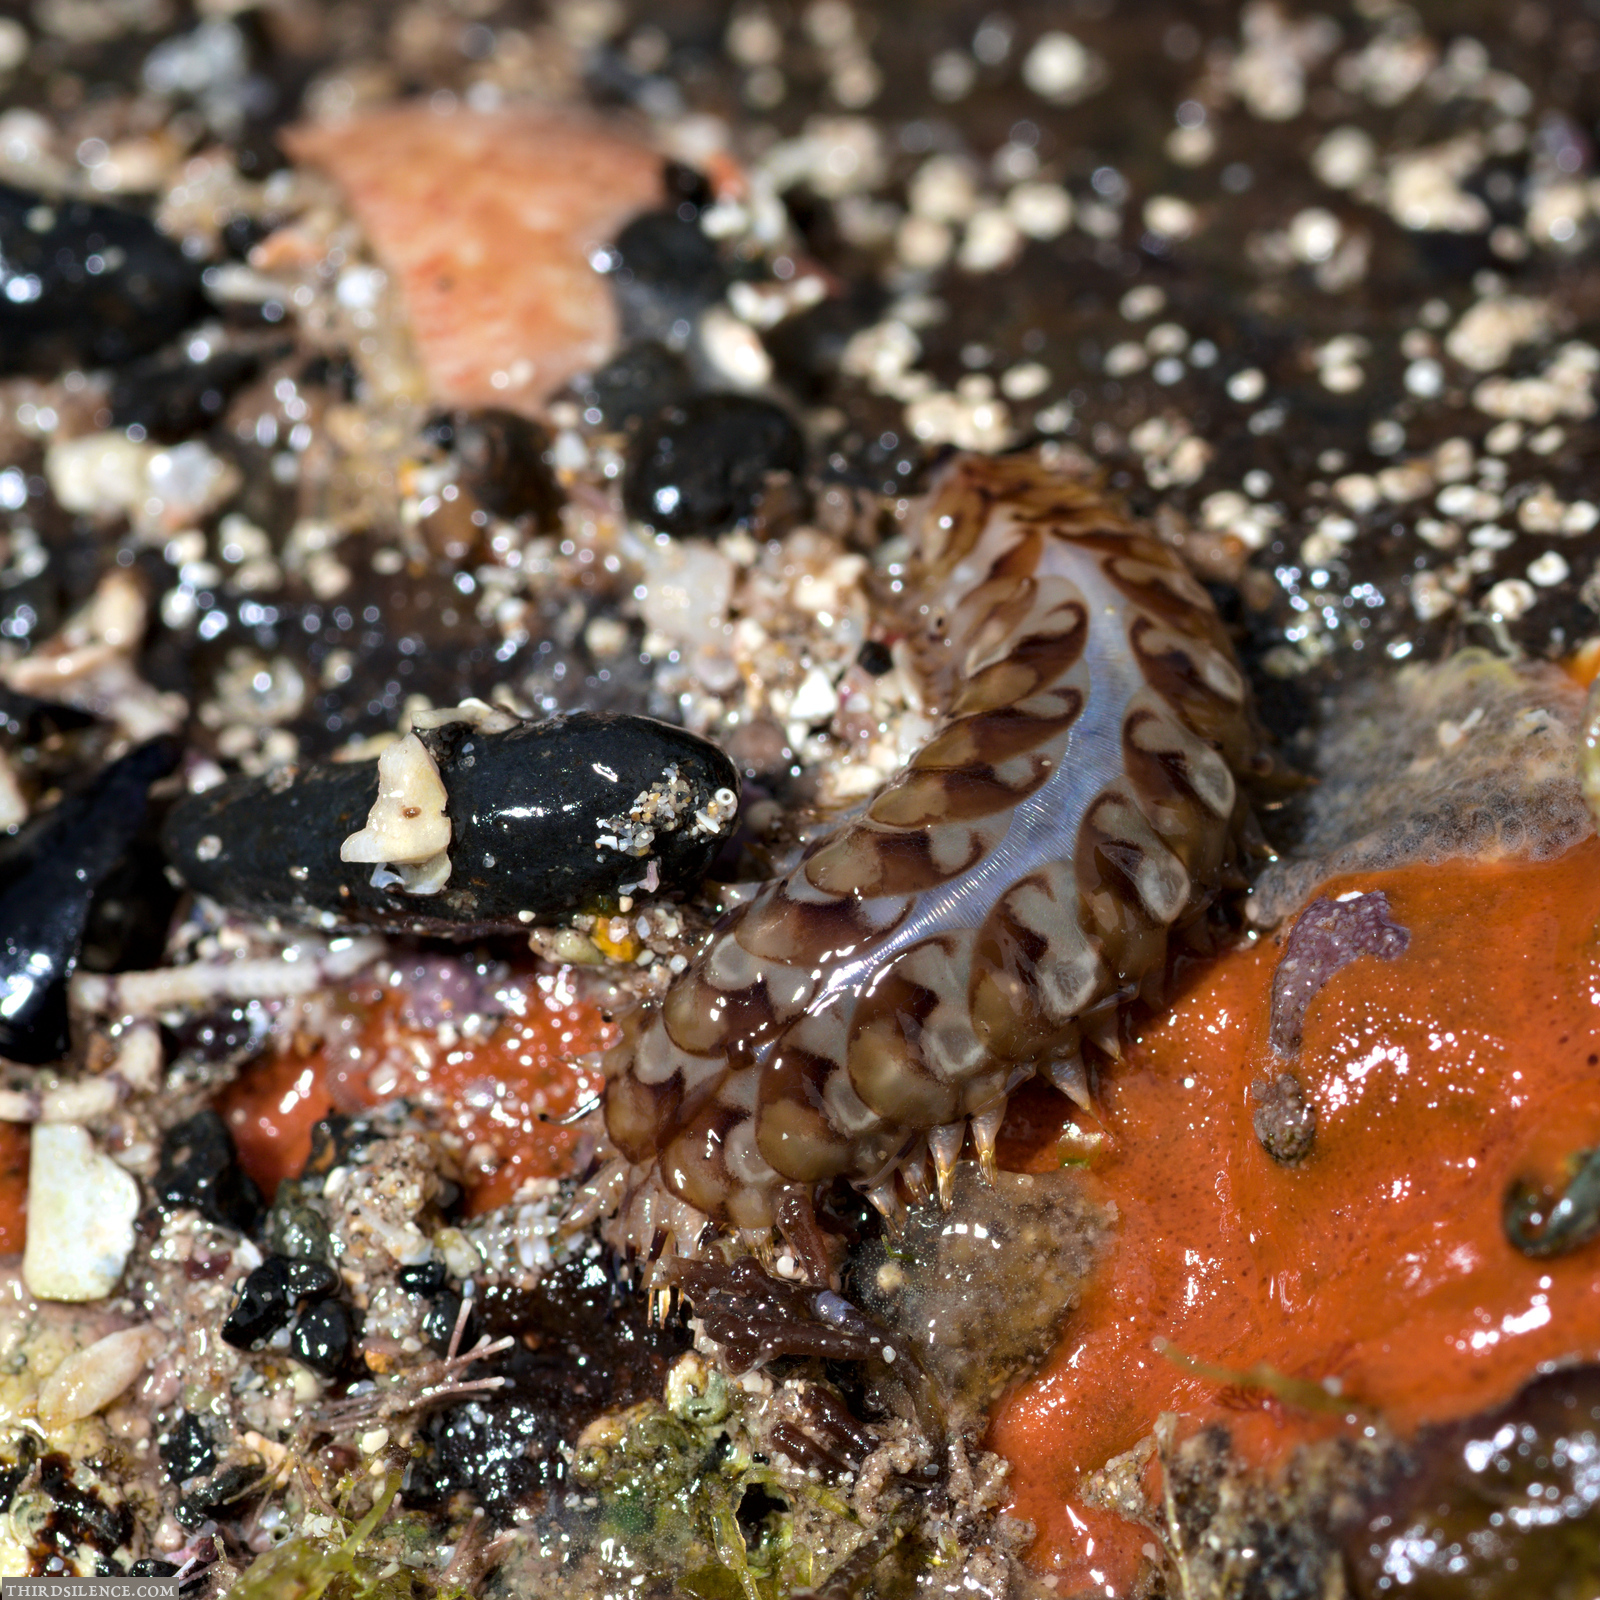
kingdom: Animalia
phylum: Annelida
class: Polychaeta
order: Phyllodocida
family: Polynoidae
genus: Lepidonotus
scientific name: Lepidonotus melanogrammus
